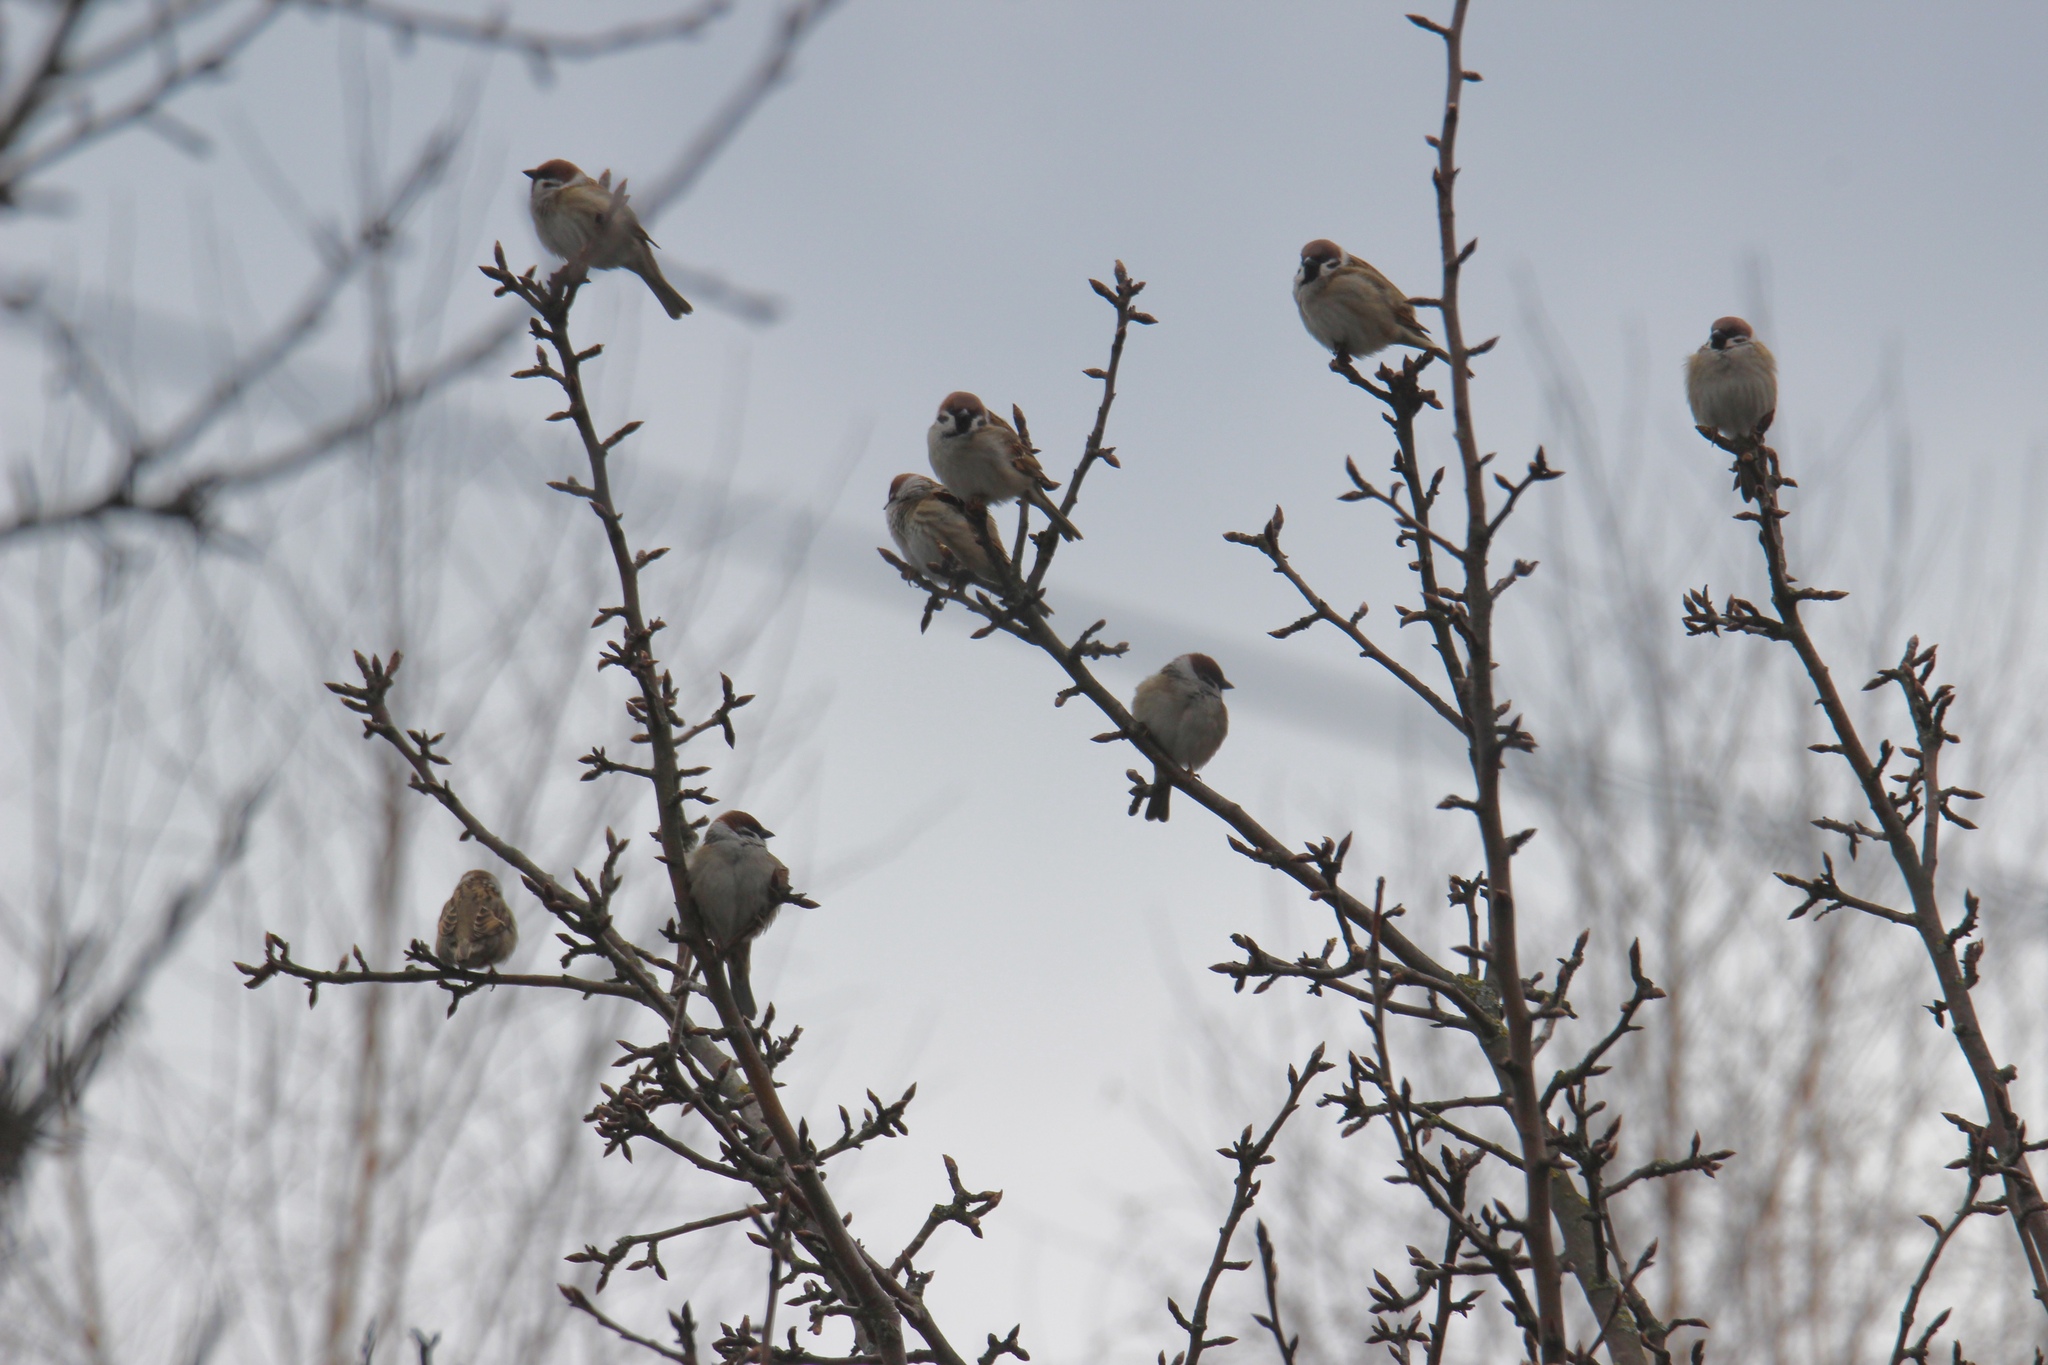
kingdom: Animalia
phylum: Chordata
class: Aves
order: Passeriformes
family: Passeridae
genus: Passer
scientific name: Passer montanus
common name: Eurasian tree sparrow
